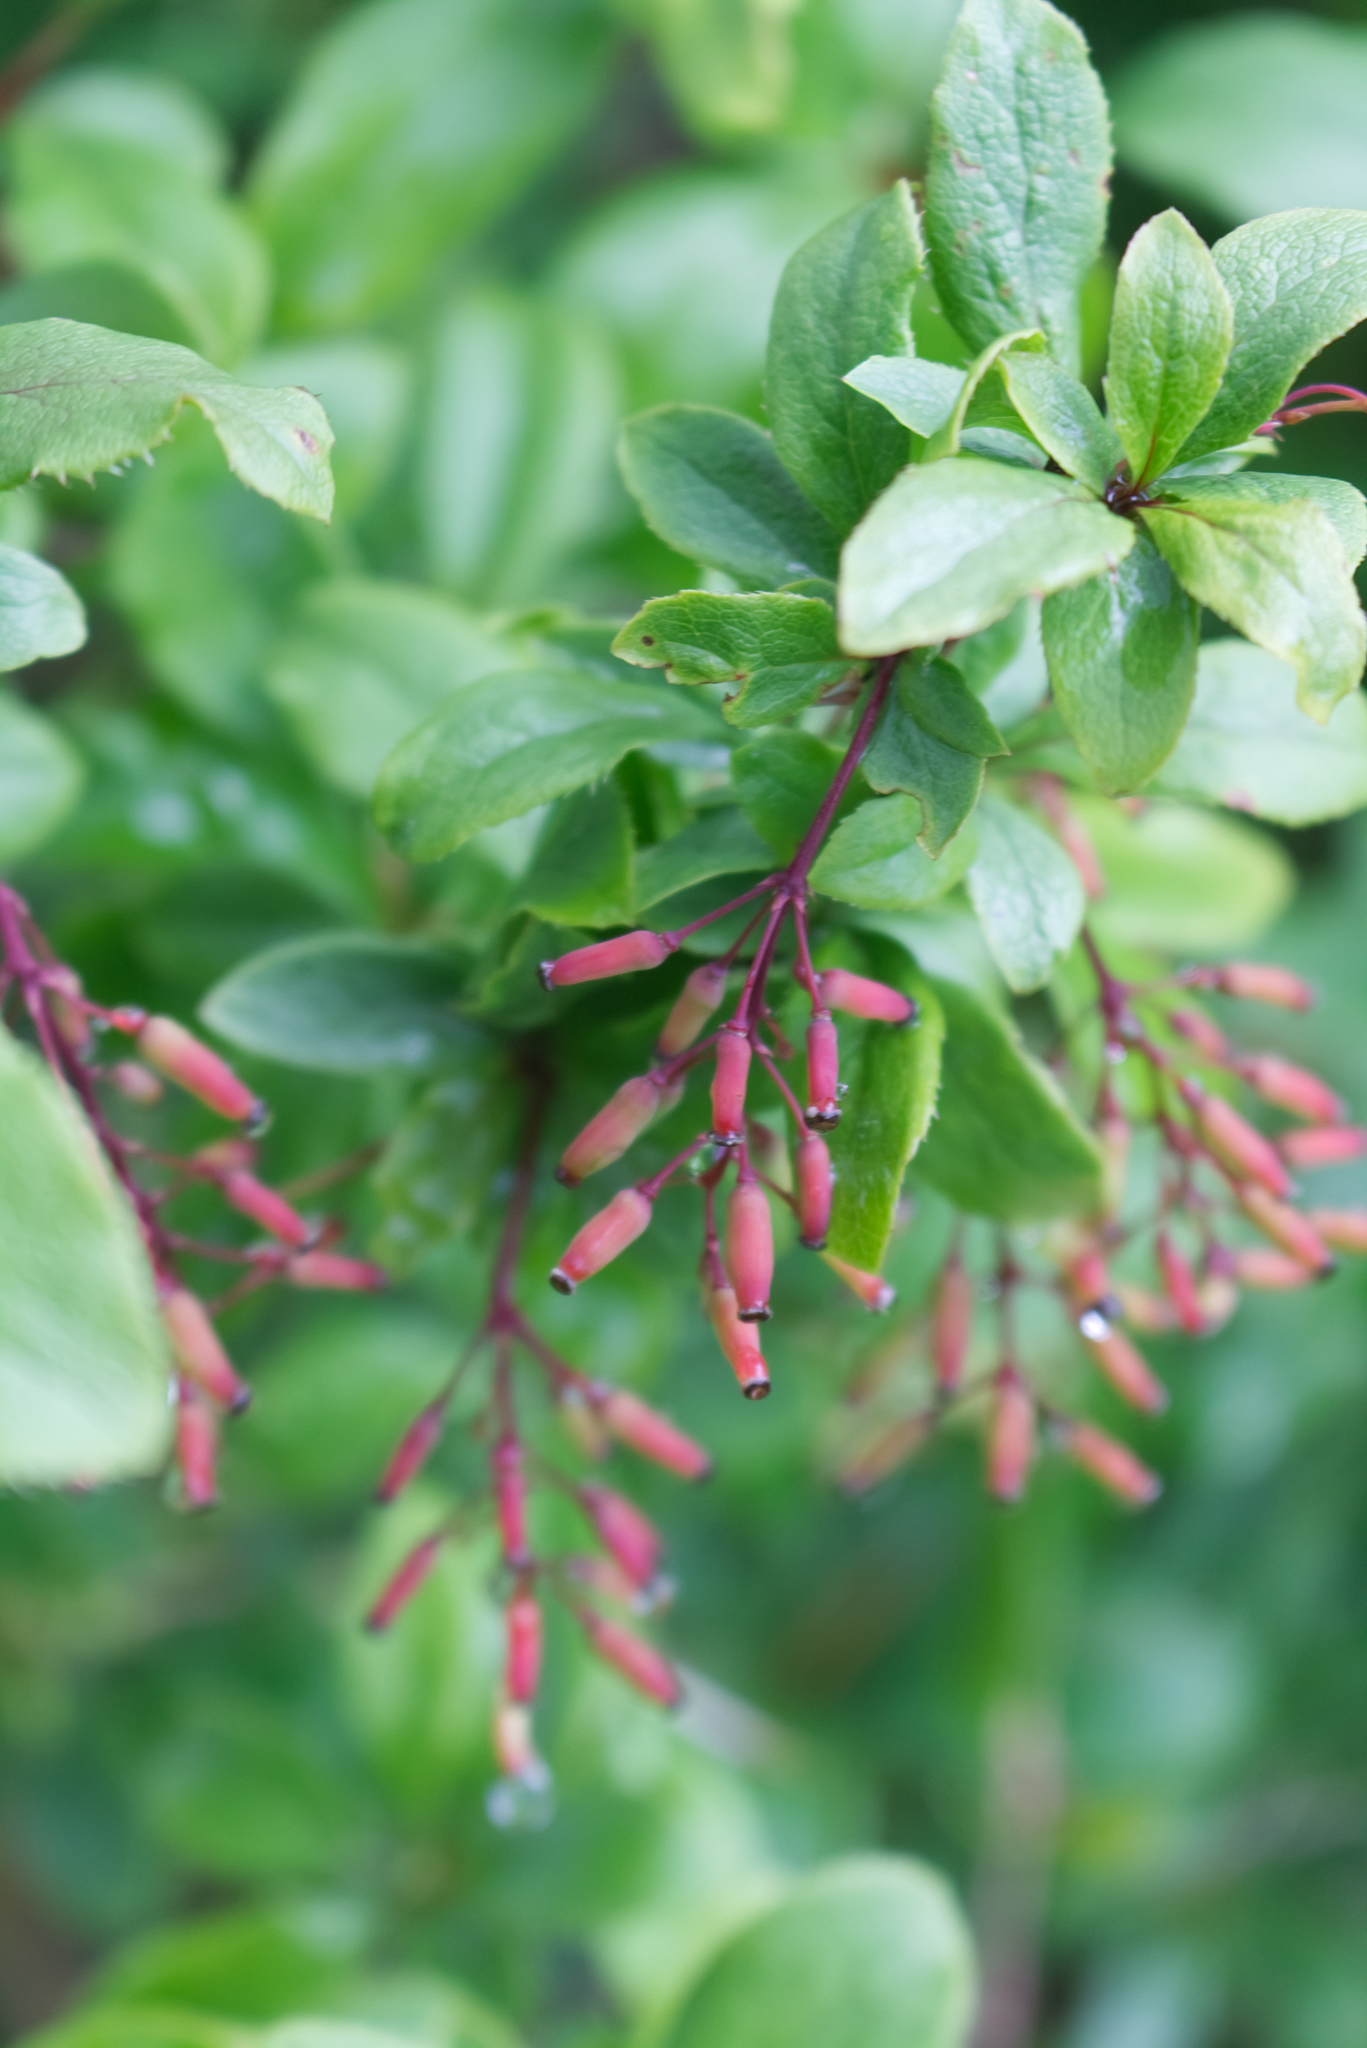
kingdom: Plantae
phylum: Tracheophyta
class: Magnoliopsida
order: Ranunculales
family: Berberidaceae
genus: Berberis
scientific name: Berberis vulgaris
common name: Barberry
